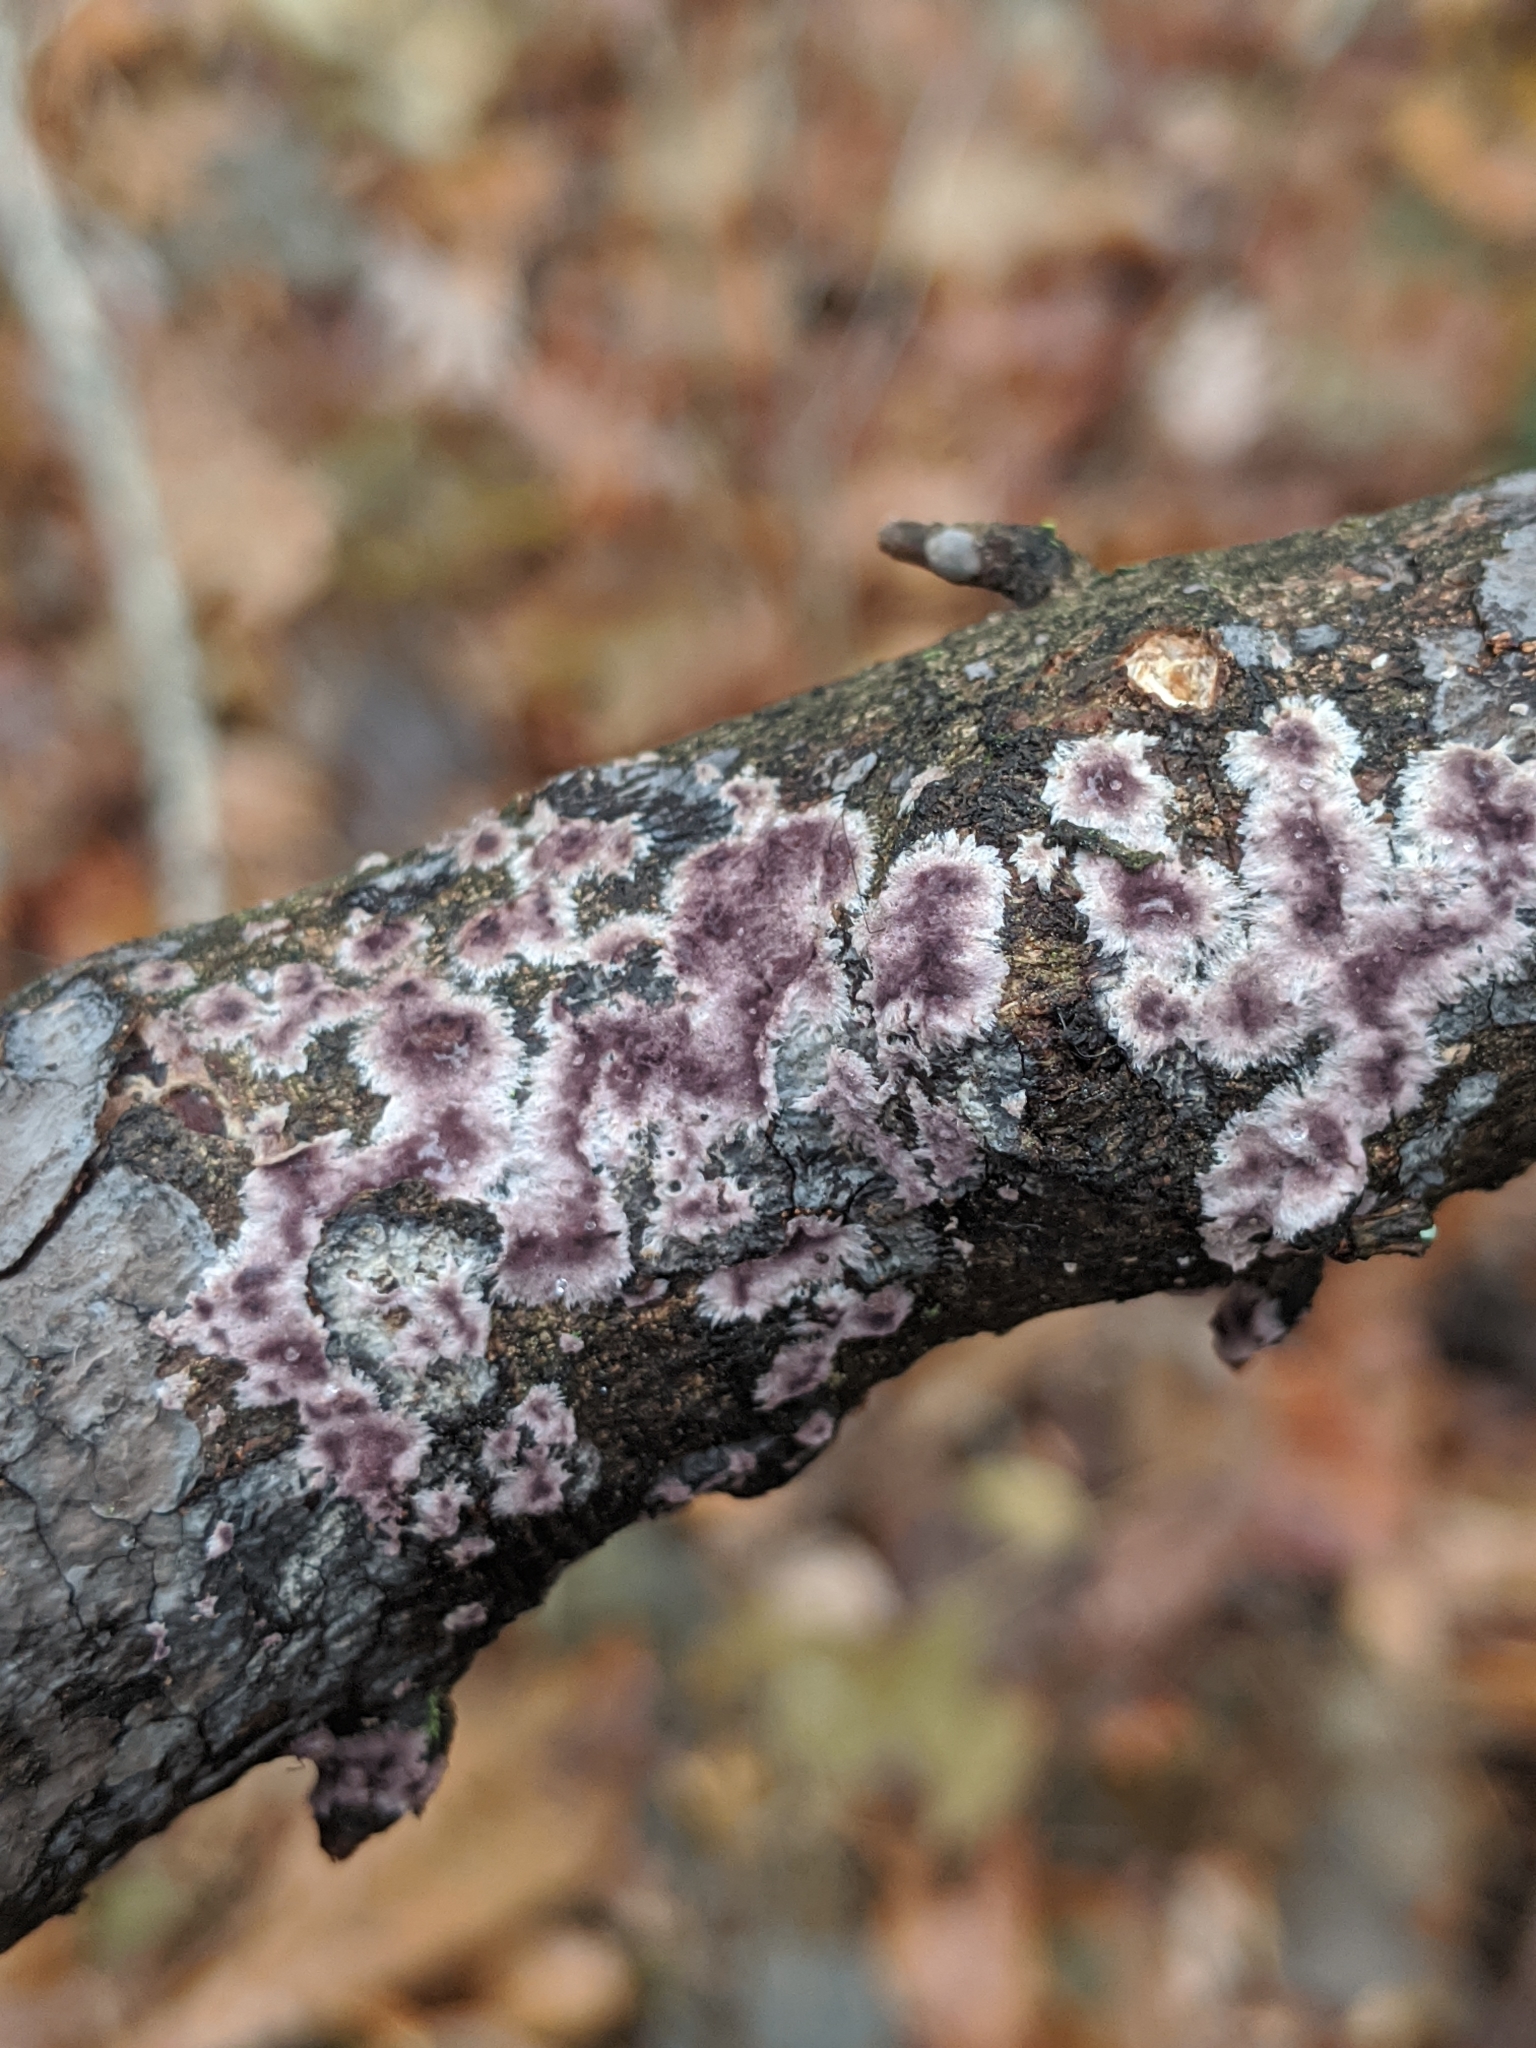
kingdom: Fungi
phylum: Basidiomycota
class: Agaricomycetes
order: Russulales
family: Peniophoraceae
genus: Peniophora
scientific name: Peniophora albobadia
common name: Giraffe spots
